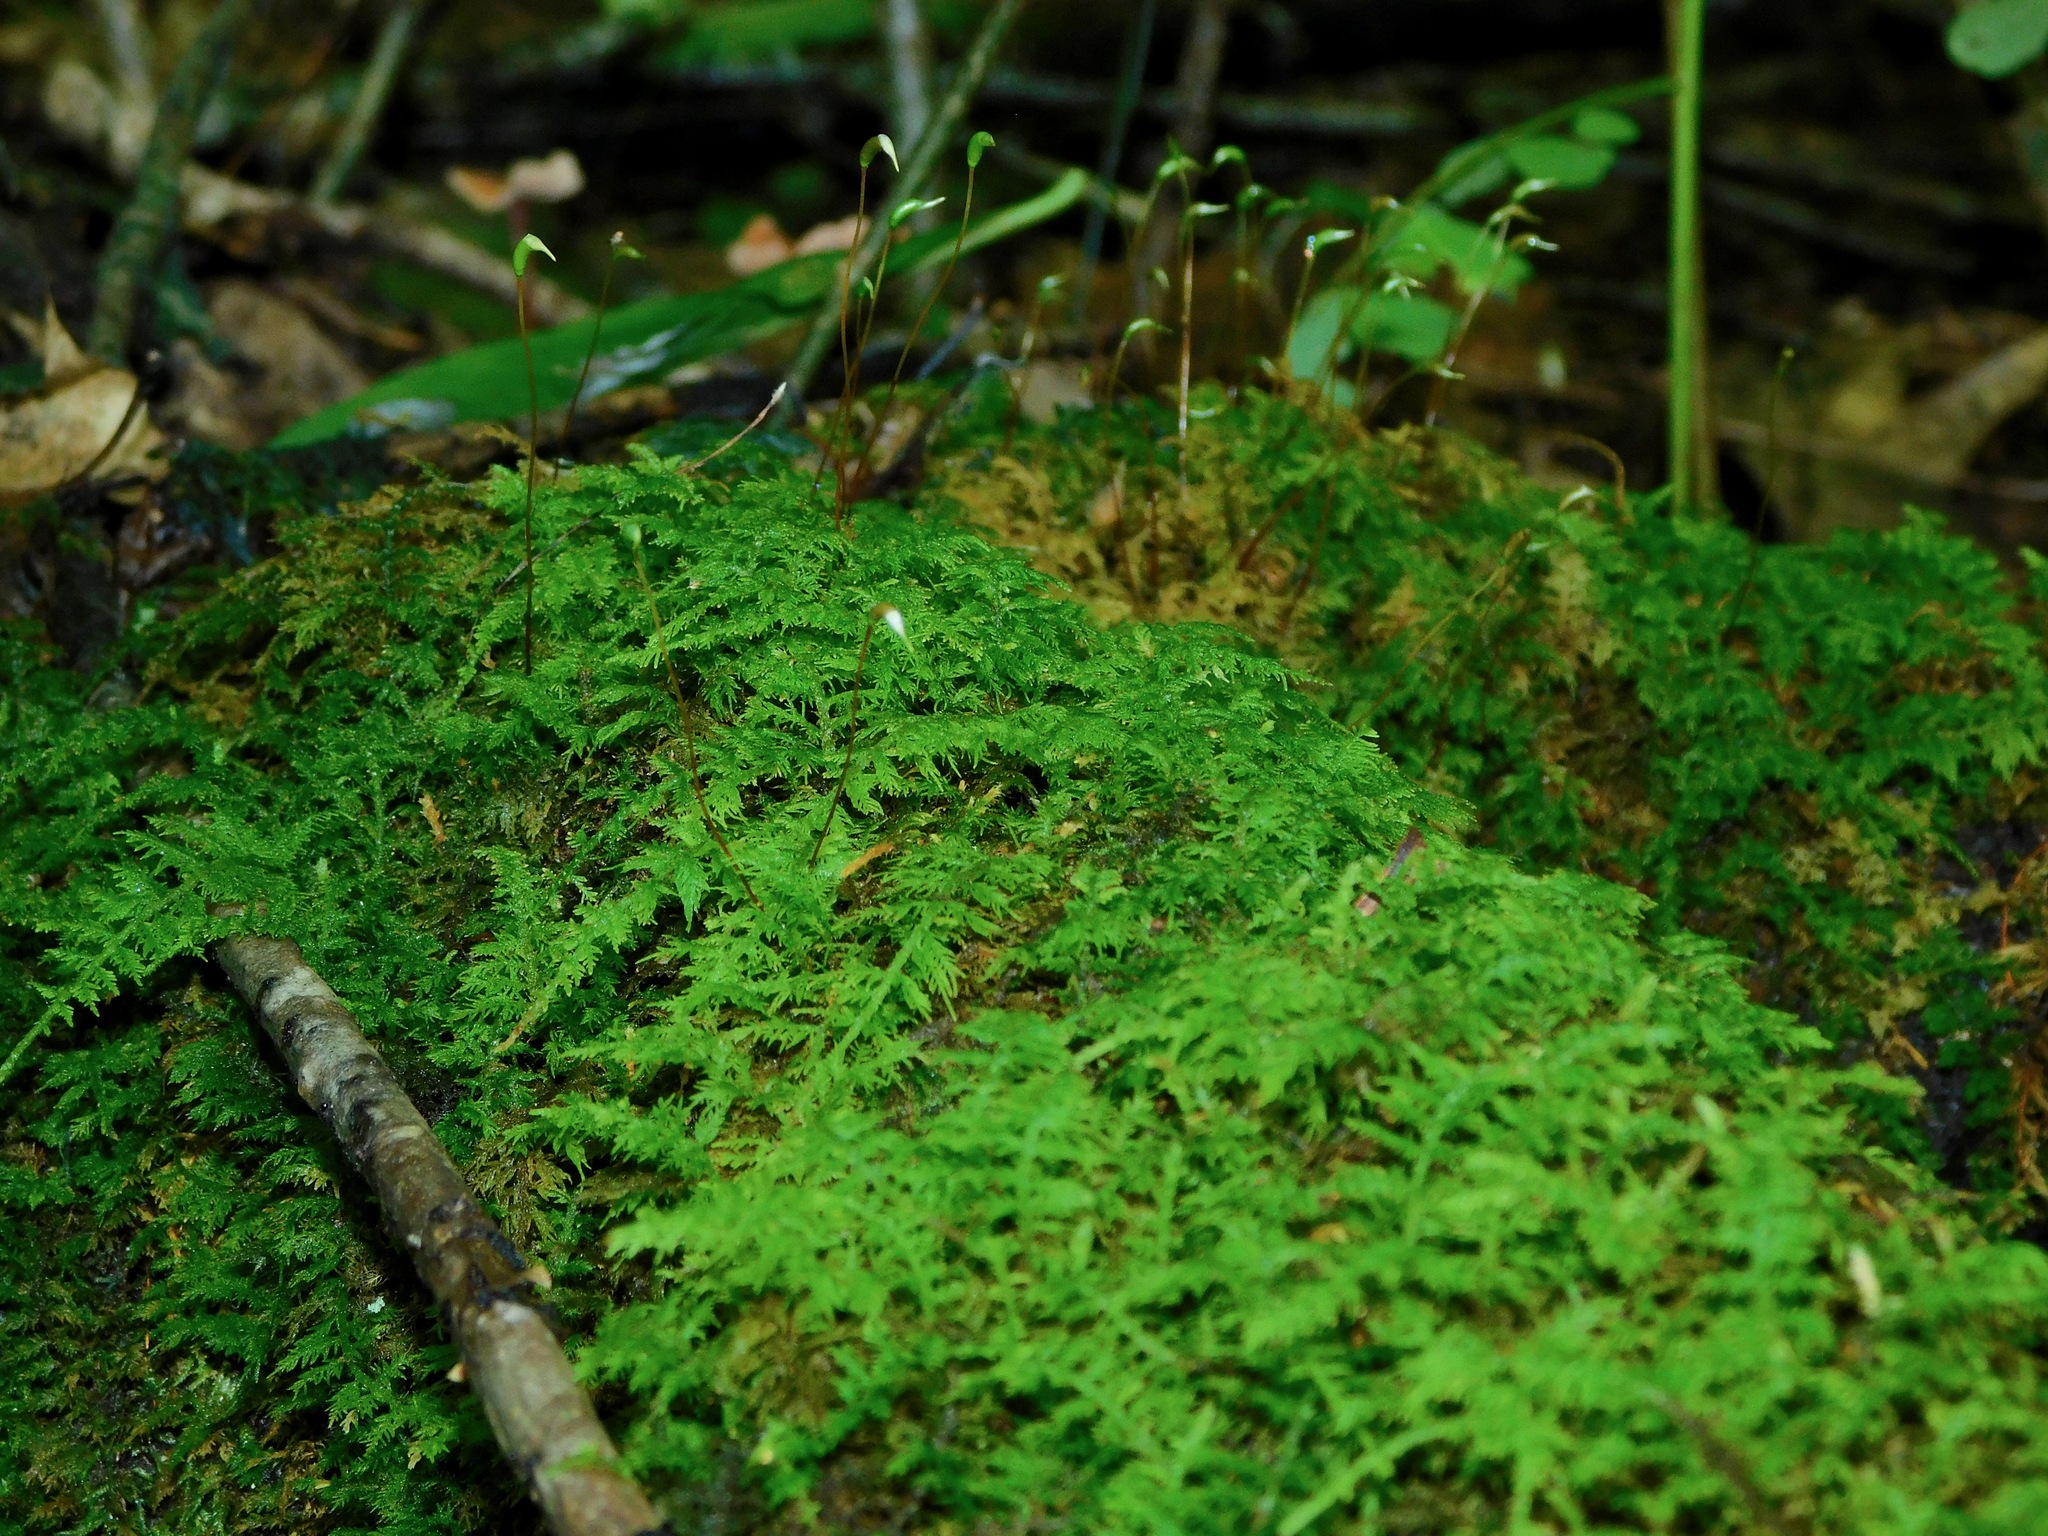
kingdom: Plantae
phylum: Bryophyta
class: Bryopsida
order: Hypnales
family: Thuidiaceae
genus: Thuidium
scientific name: Thuidium delicatulum
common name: Delicate fern moss
